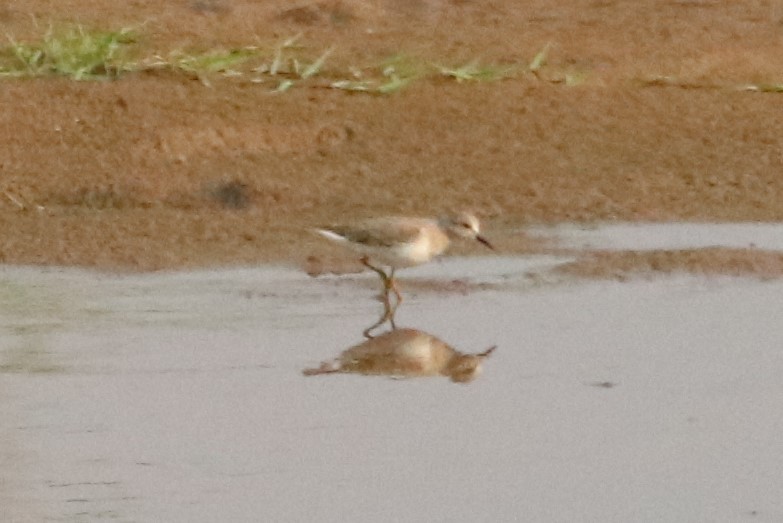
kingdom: Animalia
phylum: Chordata
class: Aves
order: Charadriiformes
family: Scolopacidae
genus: Calidris
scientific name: Calidris temminckii
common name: Temminck's stint
